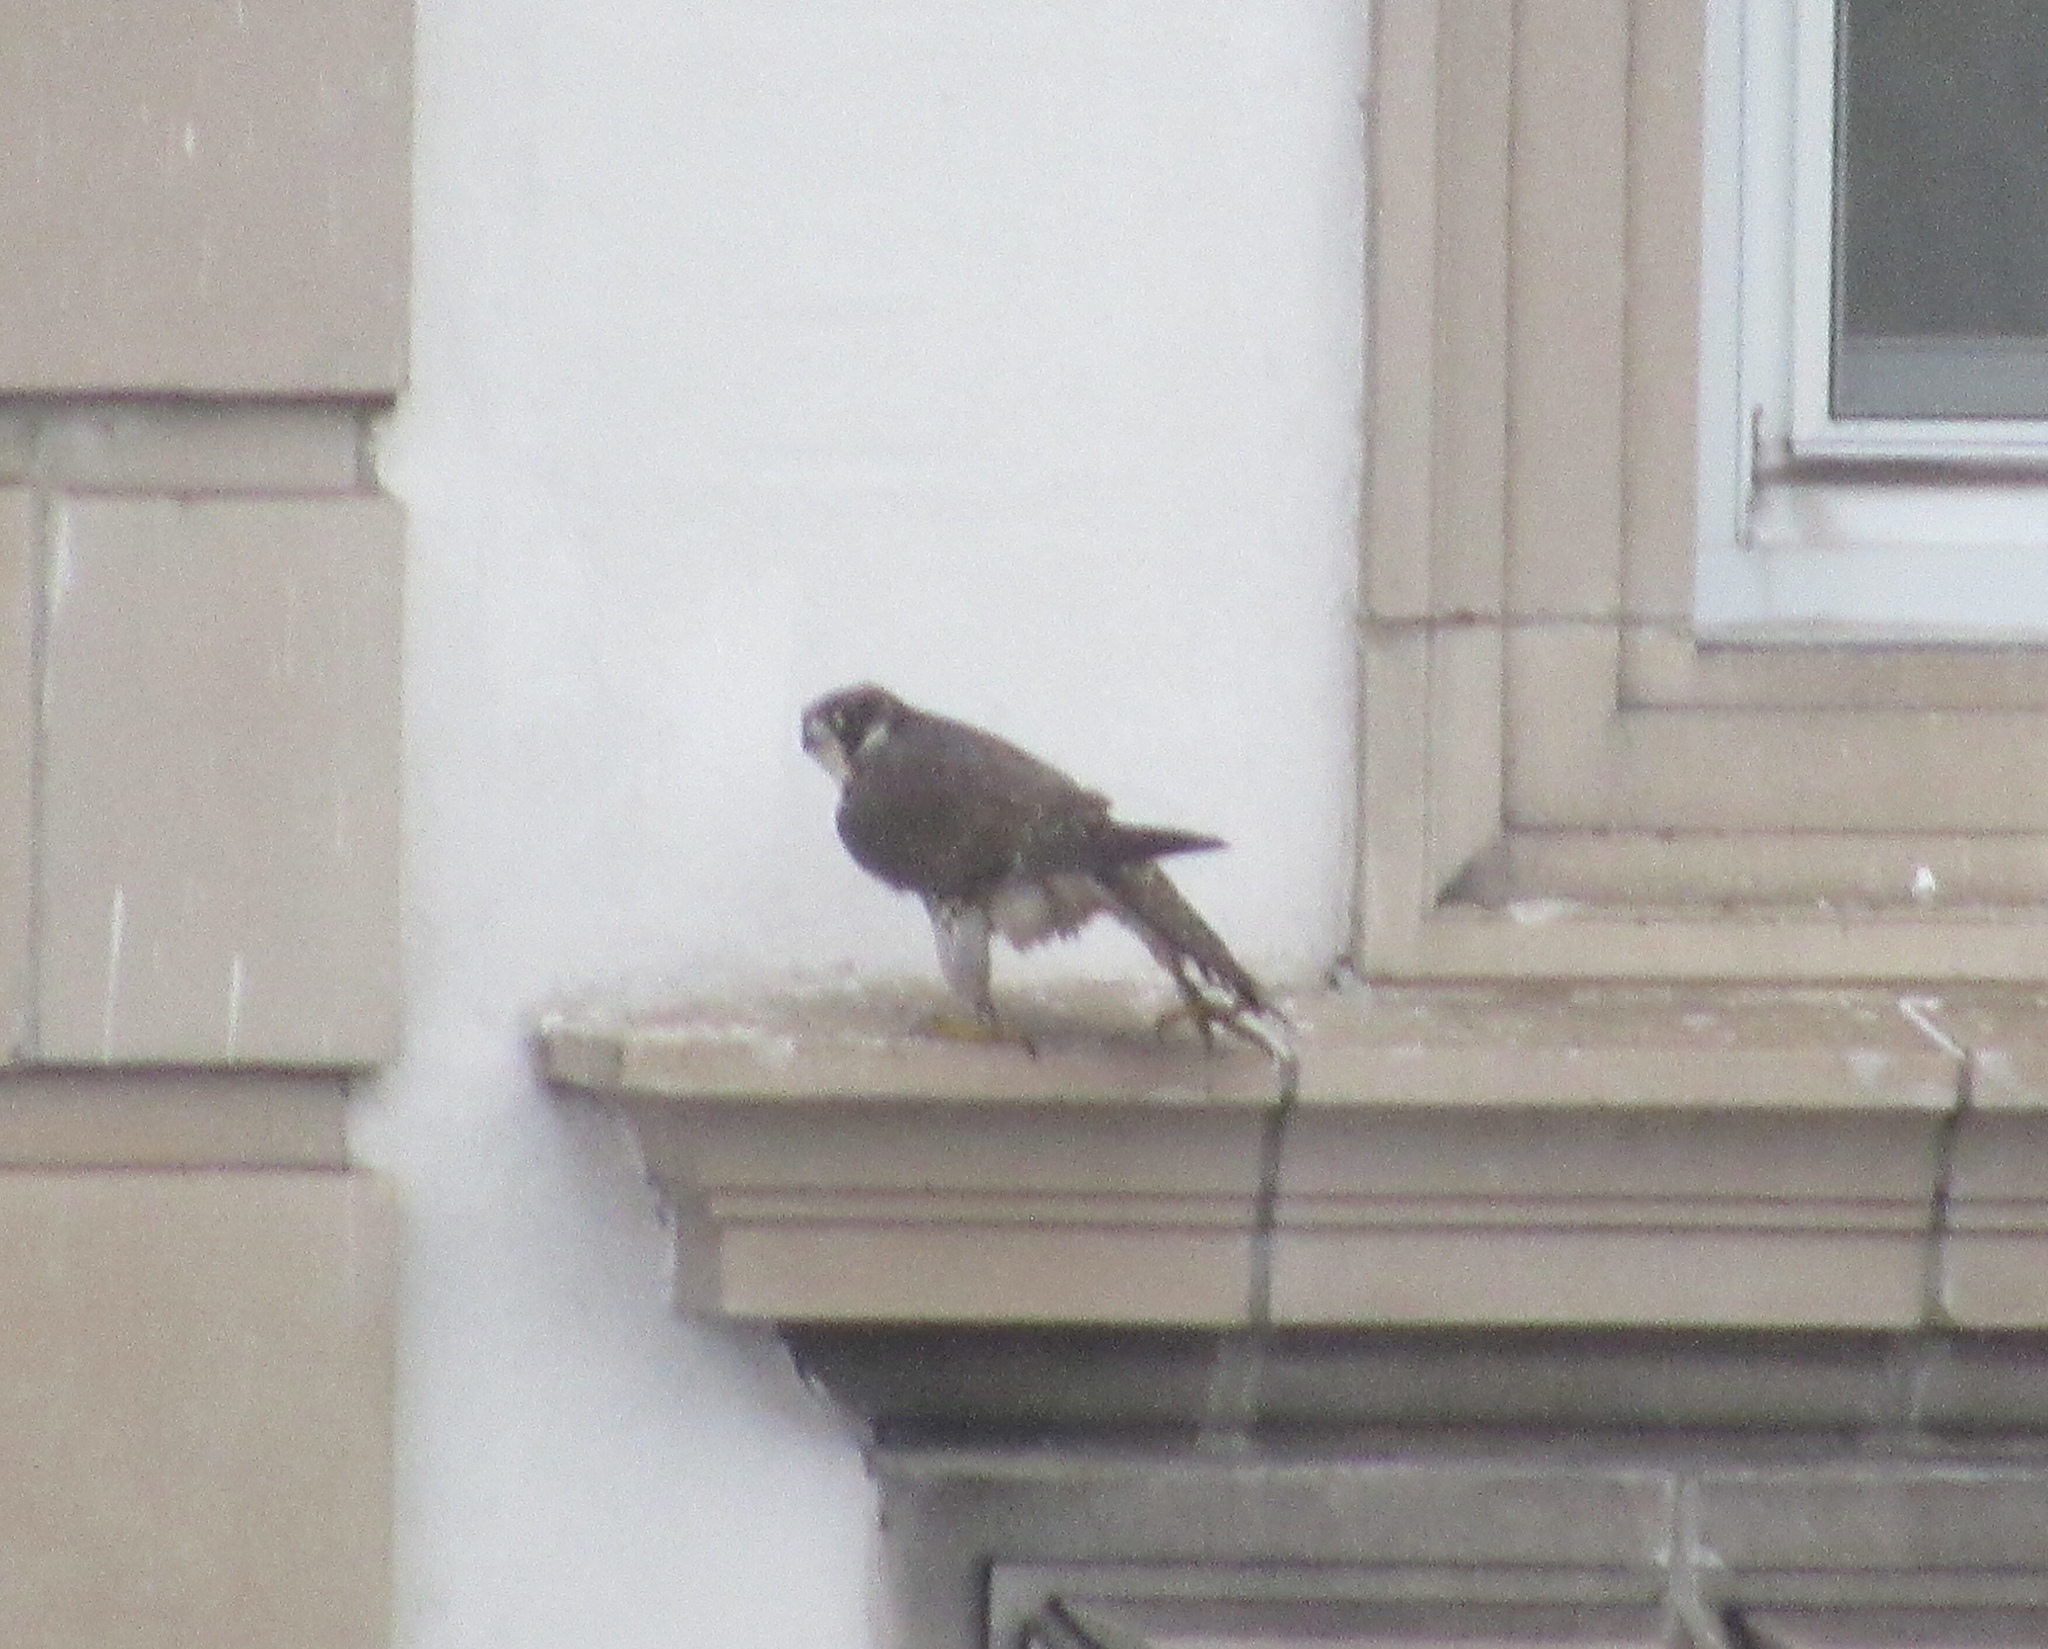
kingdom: Animalia
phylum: Chordata
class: Aves
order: Falconiformes
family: Falconidae
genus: Falco
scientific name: Falco peregrinus
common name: Peregrine falcon
